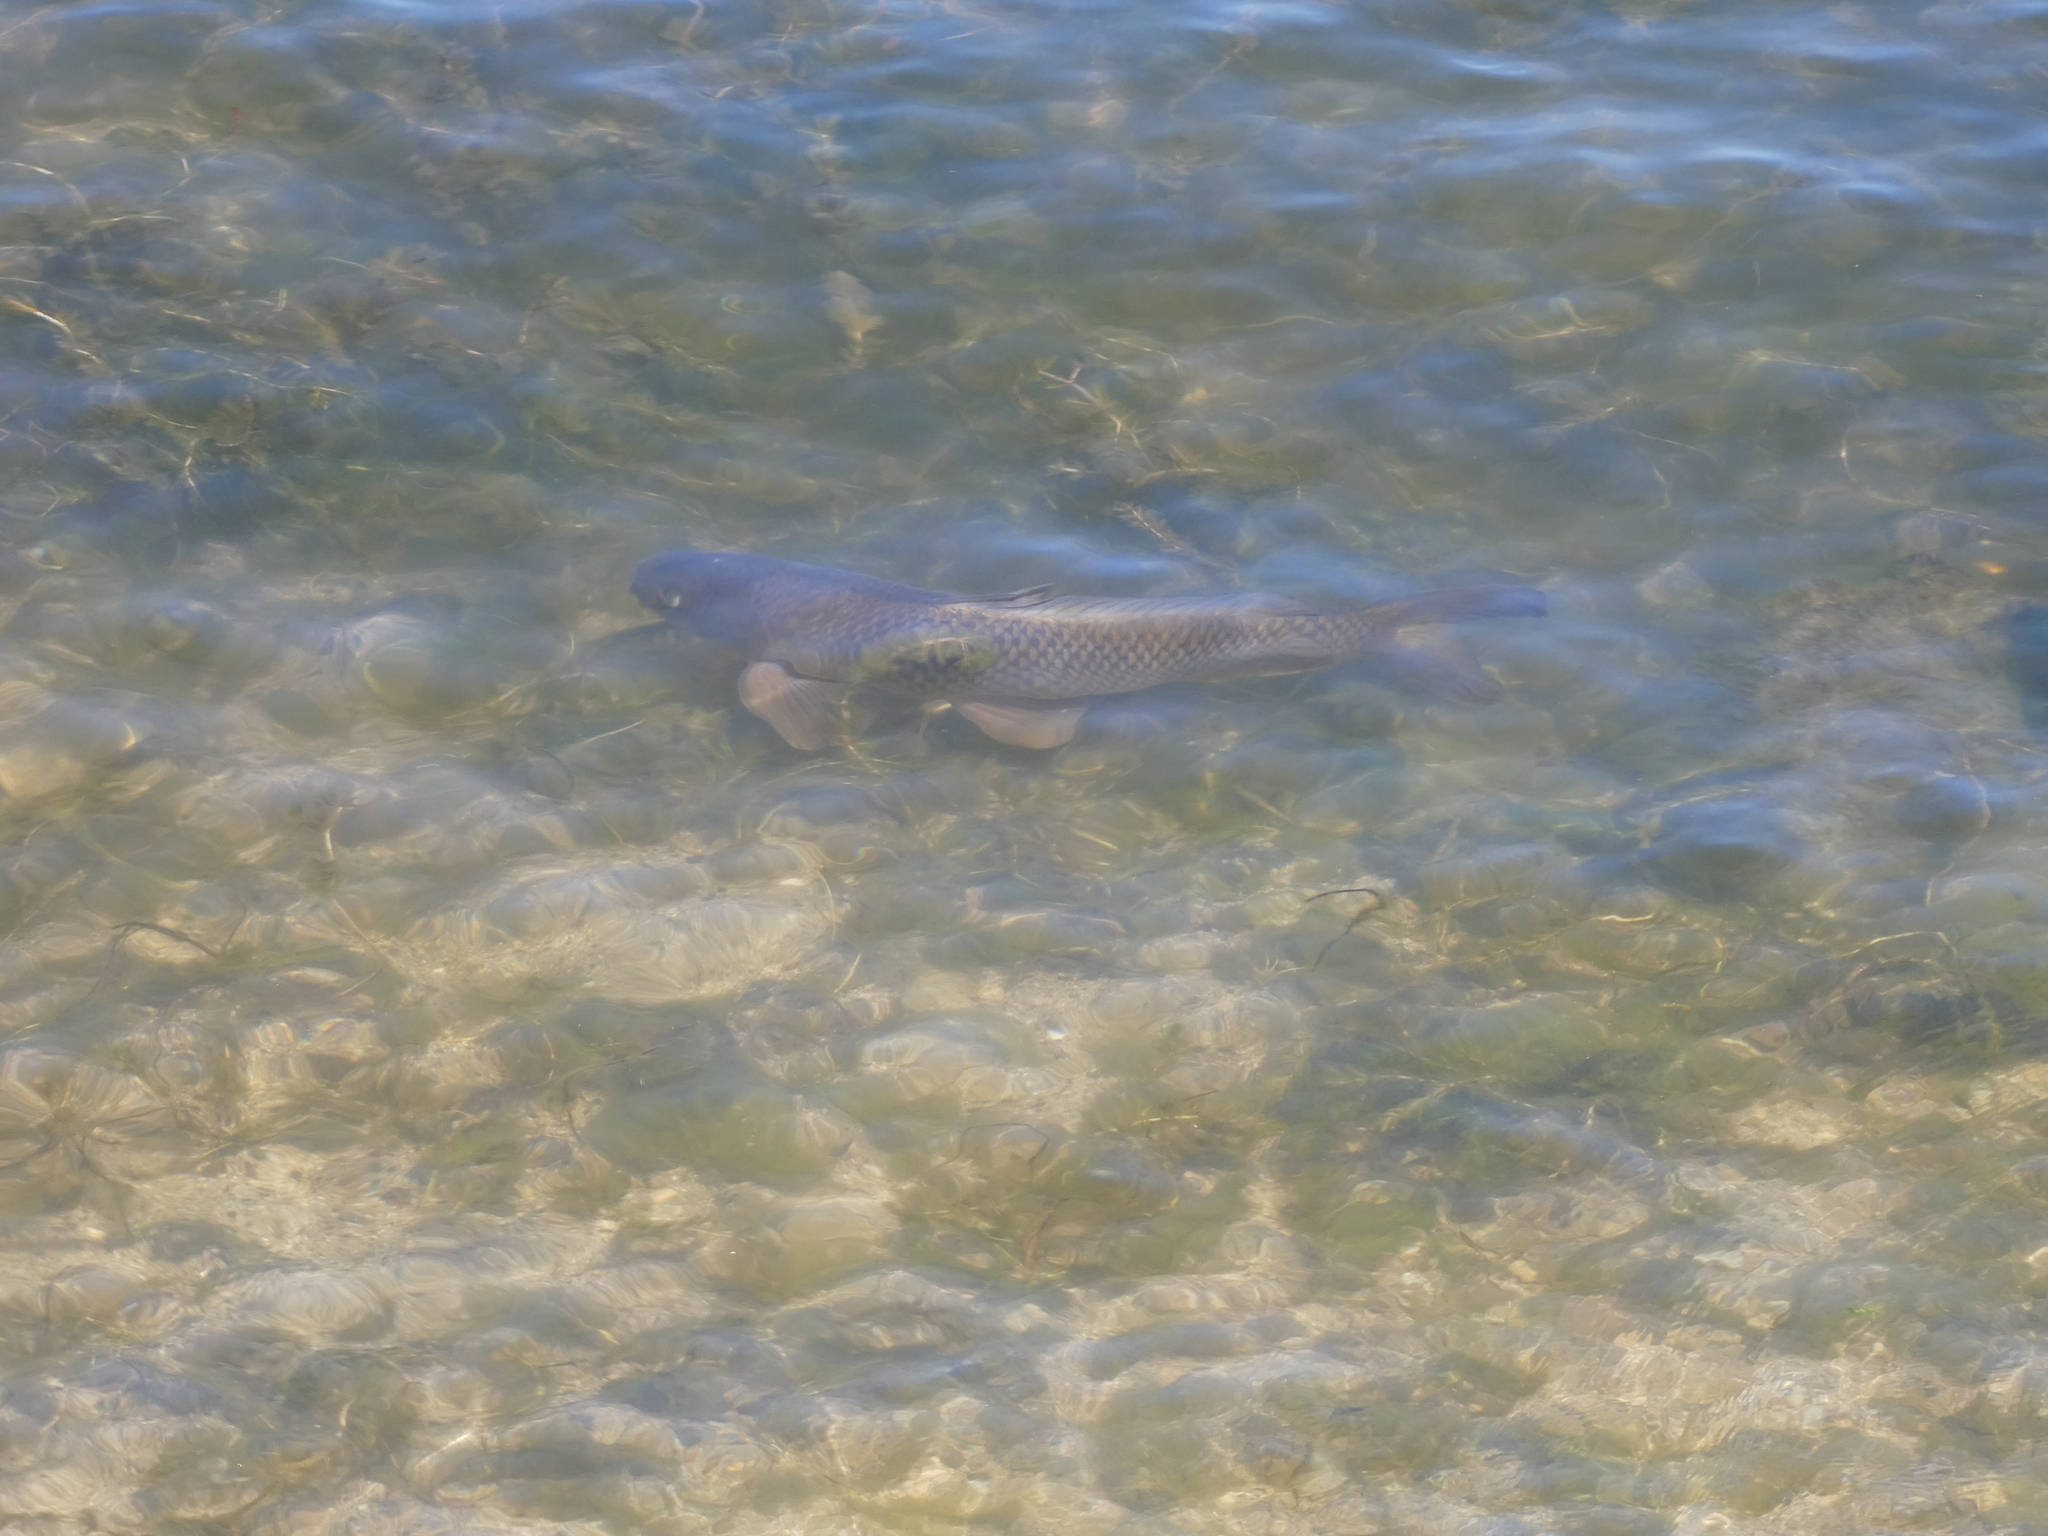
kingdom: Animalia
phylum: Chordata
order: Cypriniformes
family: Cyprinidae
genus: Cyprinus
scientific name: Cyprinus carpio
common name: Common carp
